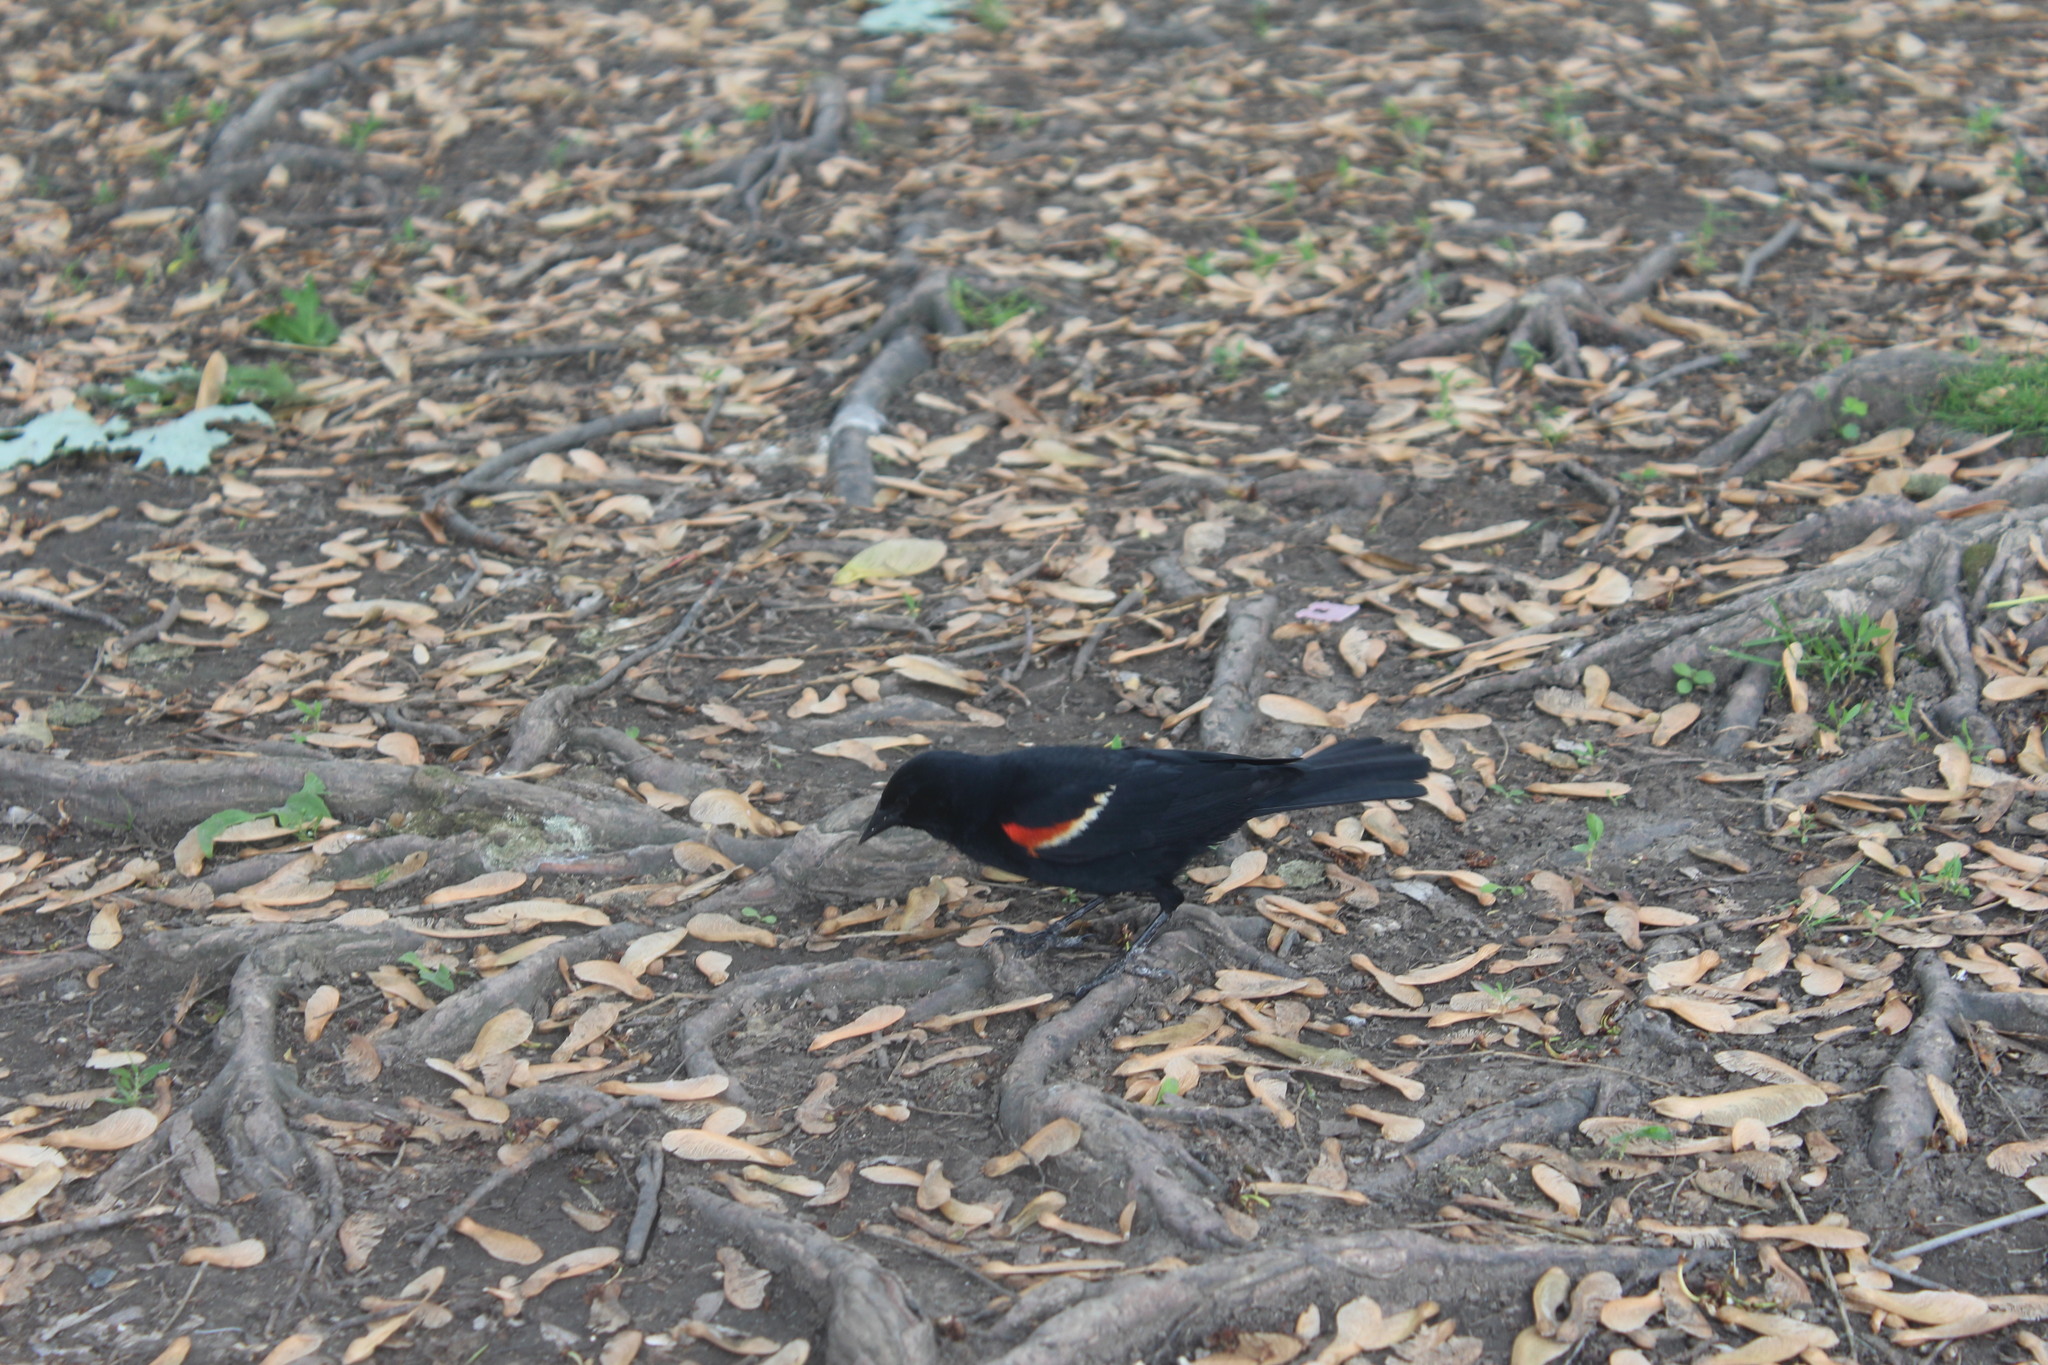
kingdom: Animalia
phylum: Chordata
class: Aves
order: Passeriformes
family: Icteridae
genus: Agelaius
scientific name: Agelaius phoeniceus
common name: Red-winged blackbird
